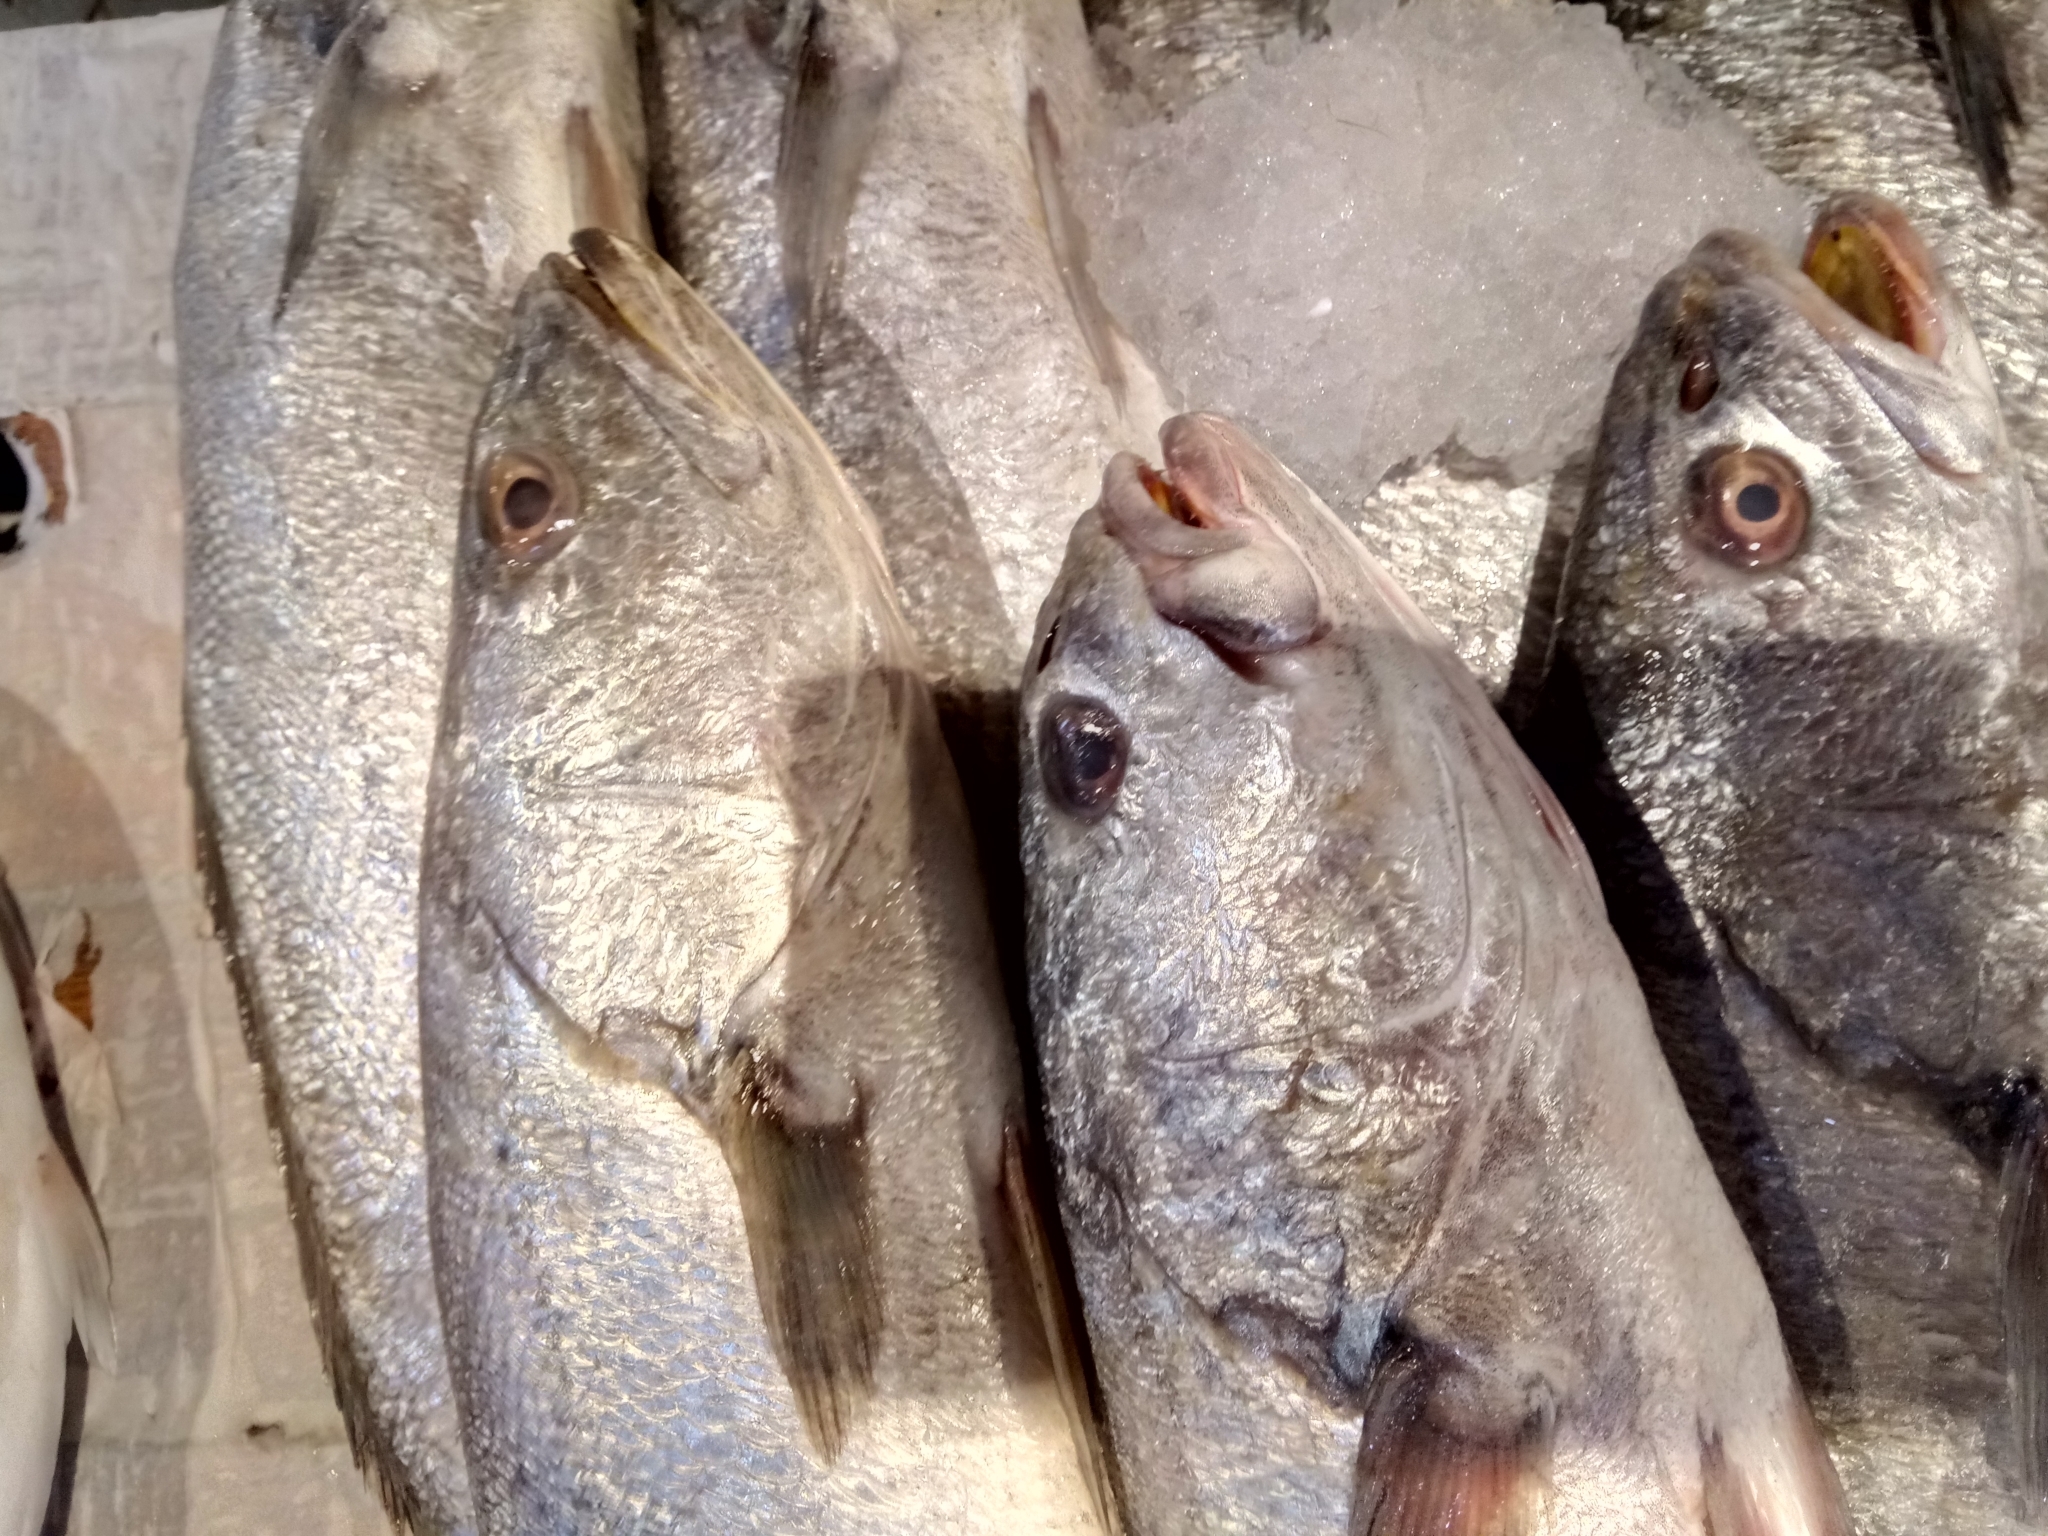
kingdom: Animalia
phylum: Chordata
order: Perciformes
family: Sciaenidae
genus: Argyrosomus
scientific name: Argyrosomus regius
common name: Meagre
